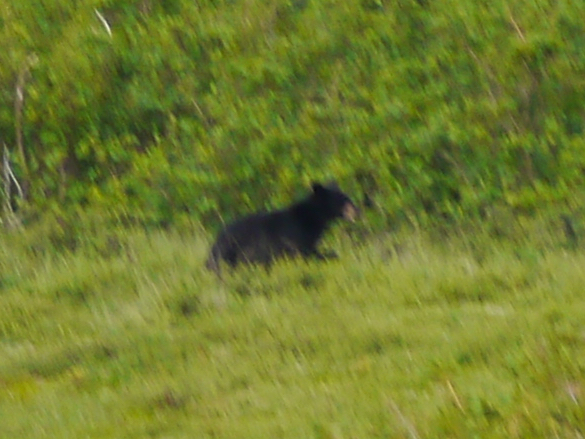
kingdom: Animalia
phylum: Chordata
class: Mammalia
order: Carnivora
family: Ursidae
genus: Ursus
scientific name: Ursus americanus
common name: American black bear
